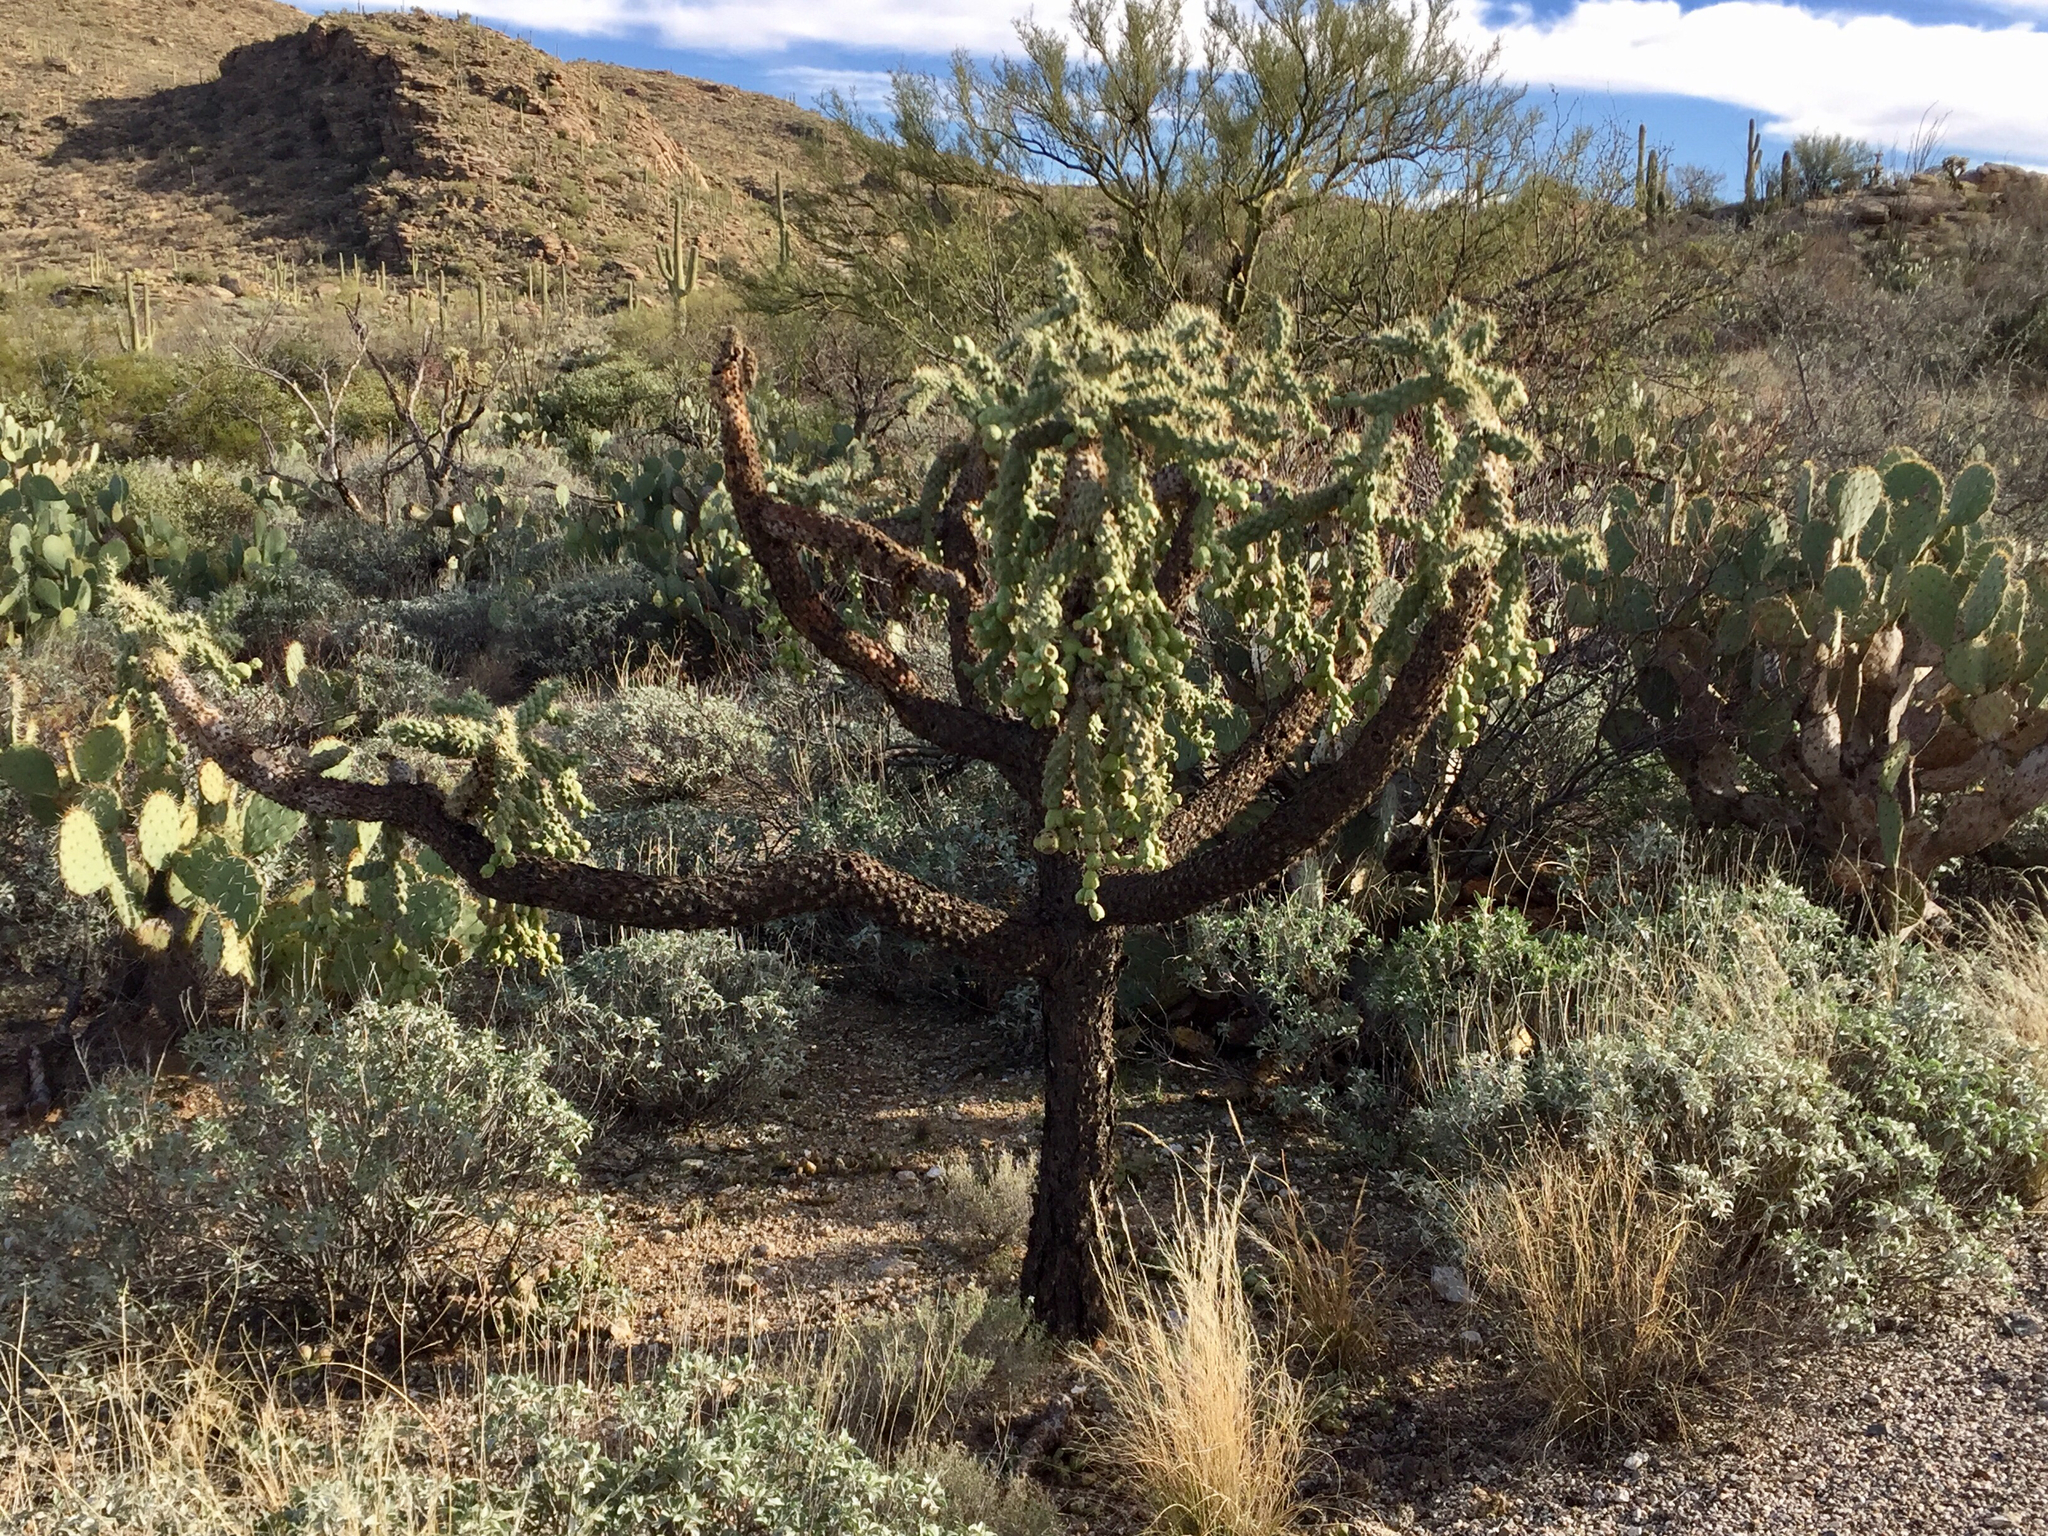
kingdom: Plantae
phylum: Tracheophyta
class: Magnoliopsida
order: Caryophyllales
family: Cactaceae
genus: Cylindropuntia
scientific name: Cylindropuntia fulgida
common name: Jumping cholla
